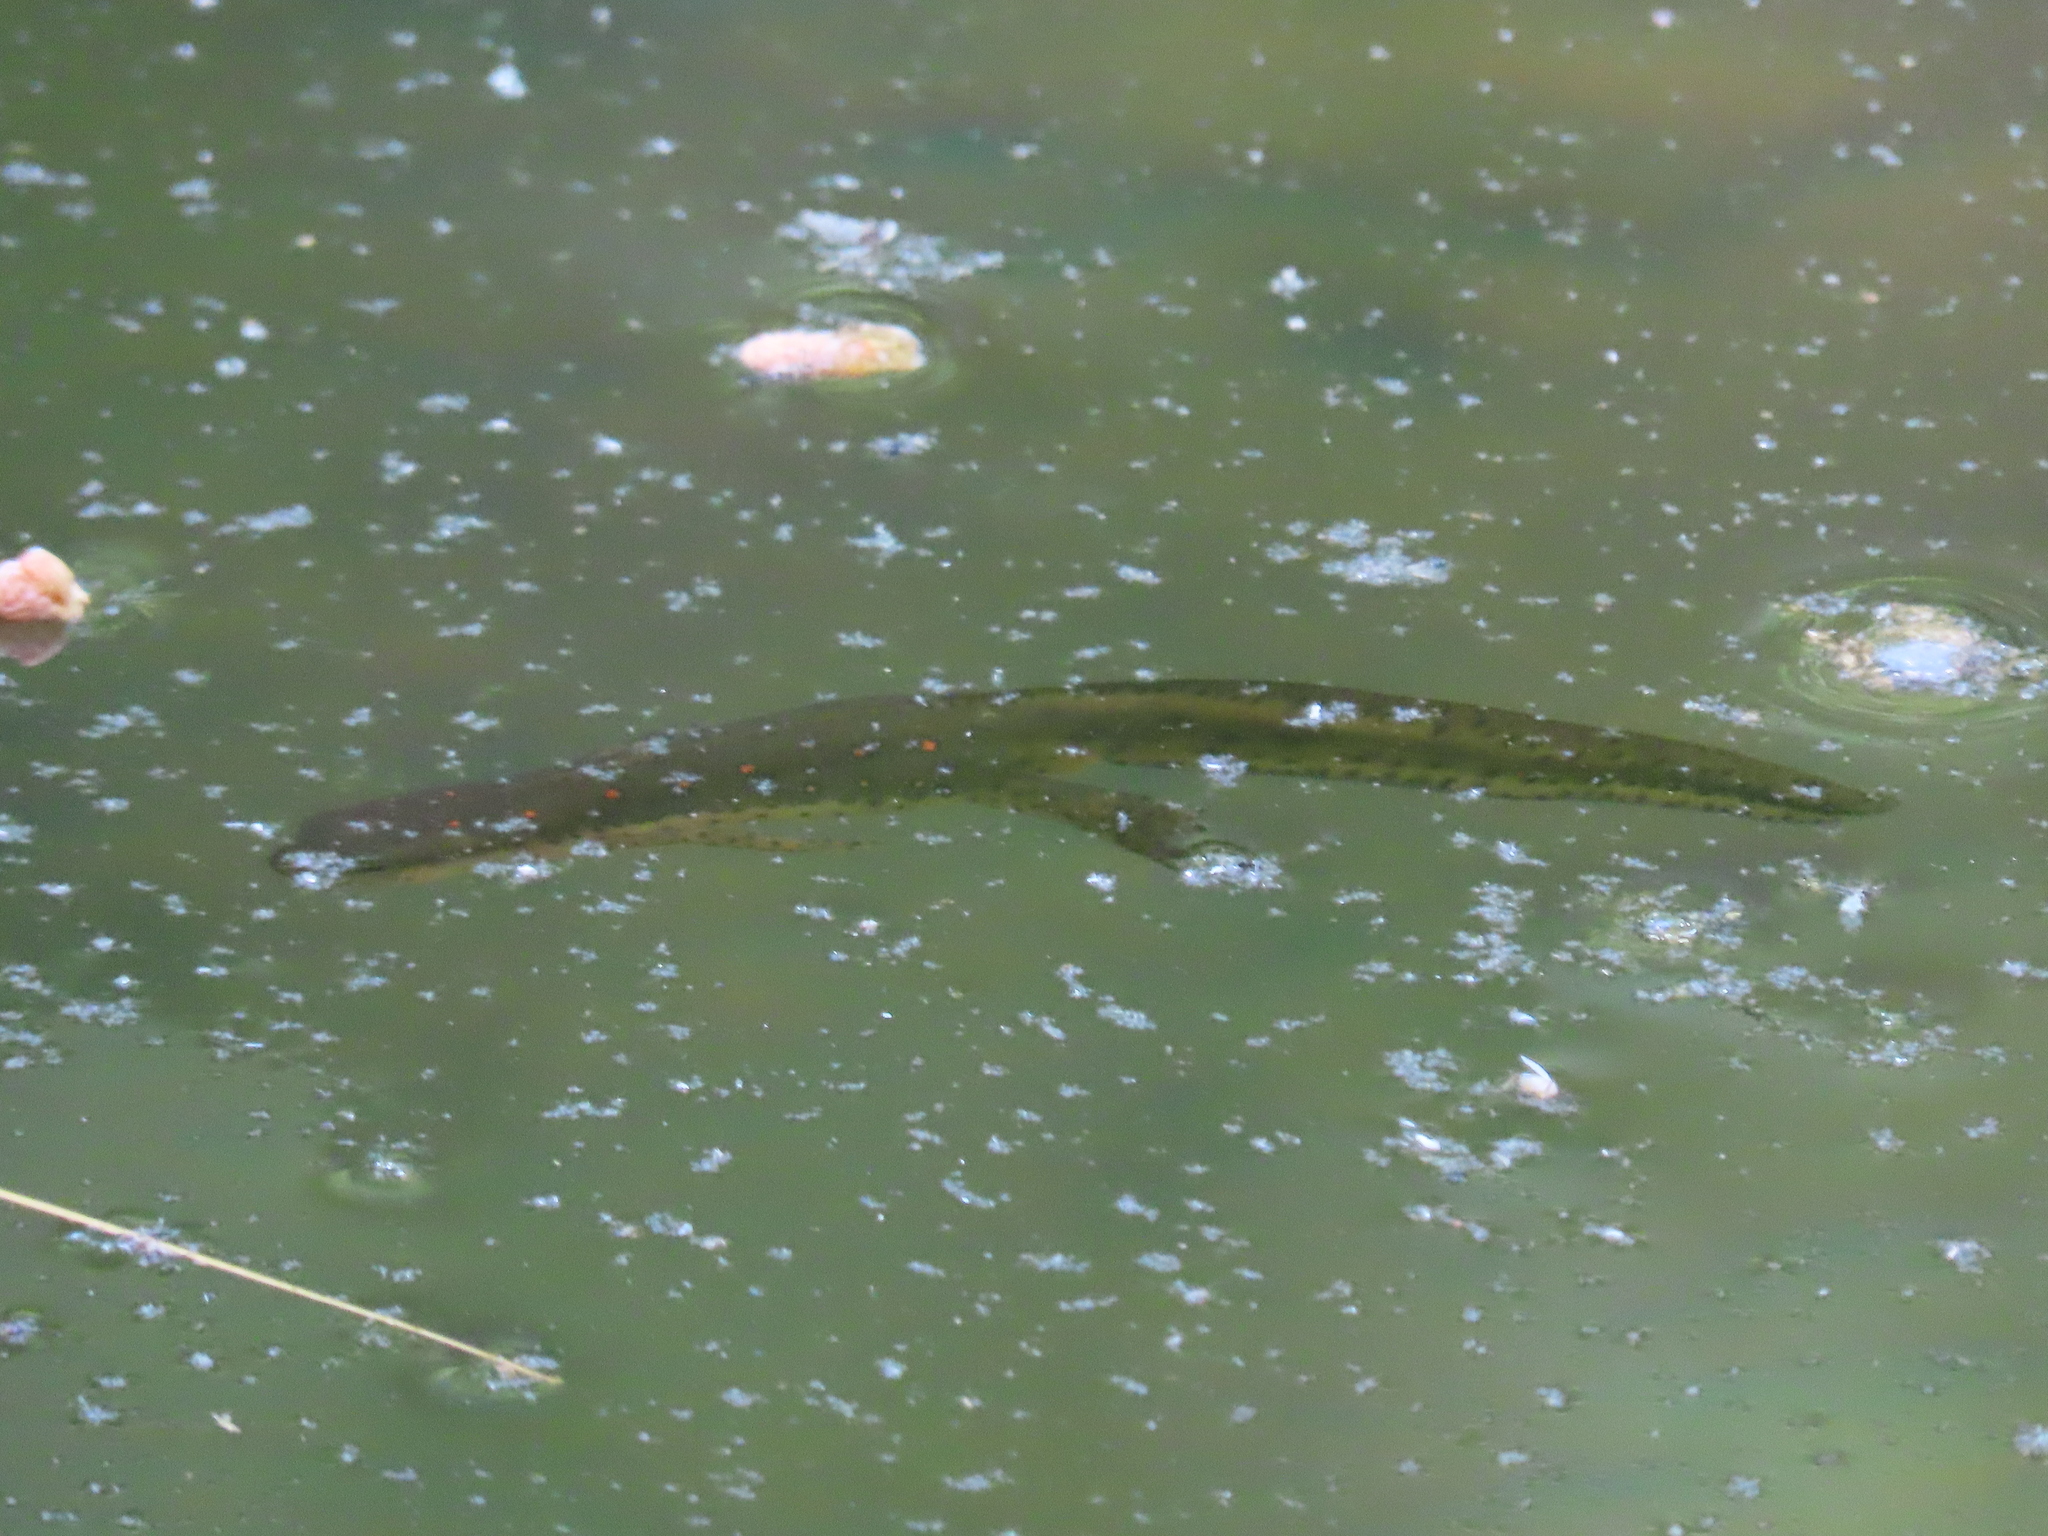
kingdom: Animalia
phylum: Chordata
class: Amphibia
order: Caudata
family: Salamandridae
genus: Notophthalmus
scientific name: Notophthalmus viridescens
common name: Eastern newt
